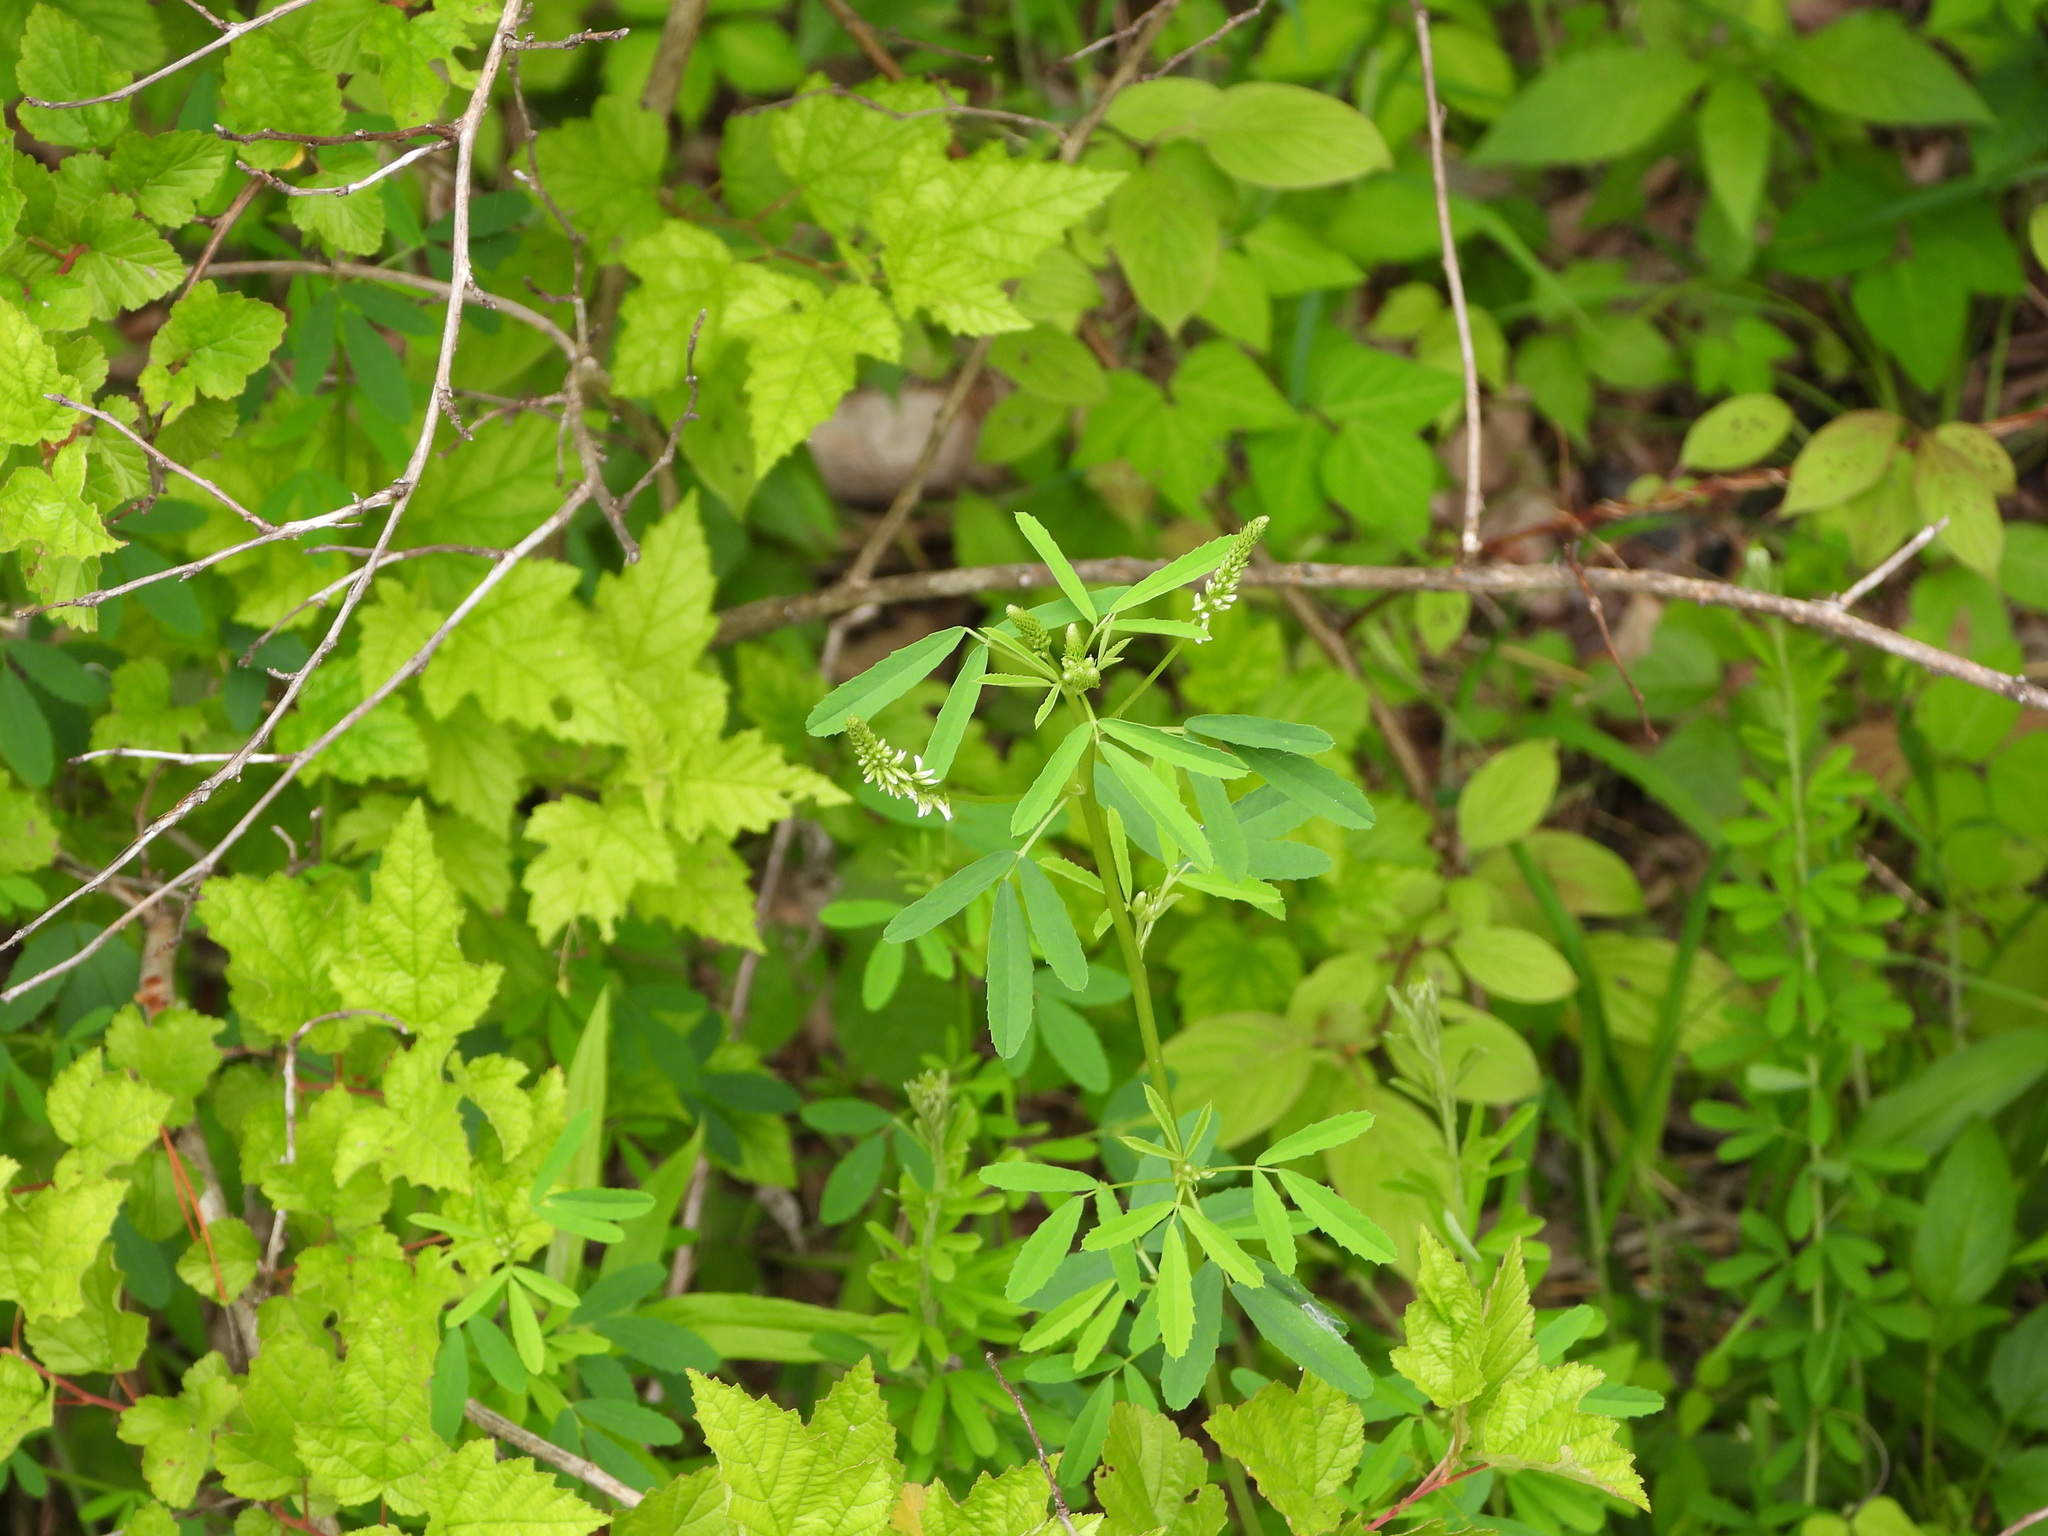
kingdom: Plantae
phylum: Tracheophyta
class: Magnoliopsida
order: Fabales
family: Fabaceae
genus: Melilotus
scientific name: Melilotus albus
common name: White melilot
